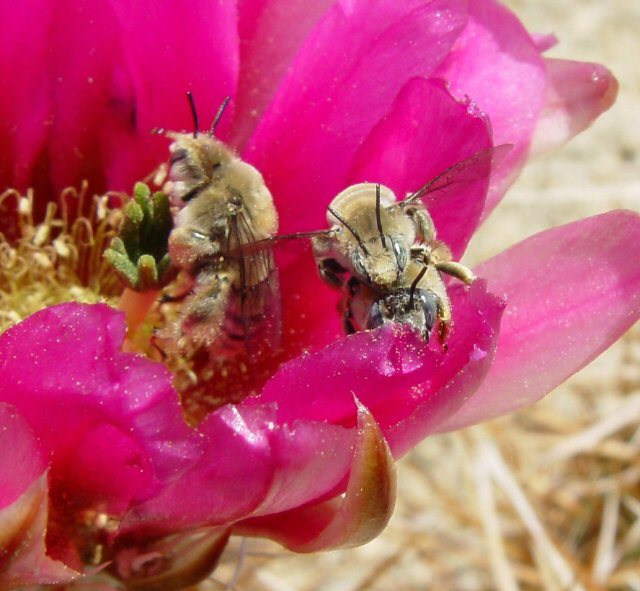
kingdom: Animalia
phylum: Arthropoda
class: Insecta
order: Hymenoptera
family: Apidae
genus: Diadasia
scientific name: Diadasia
